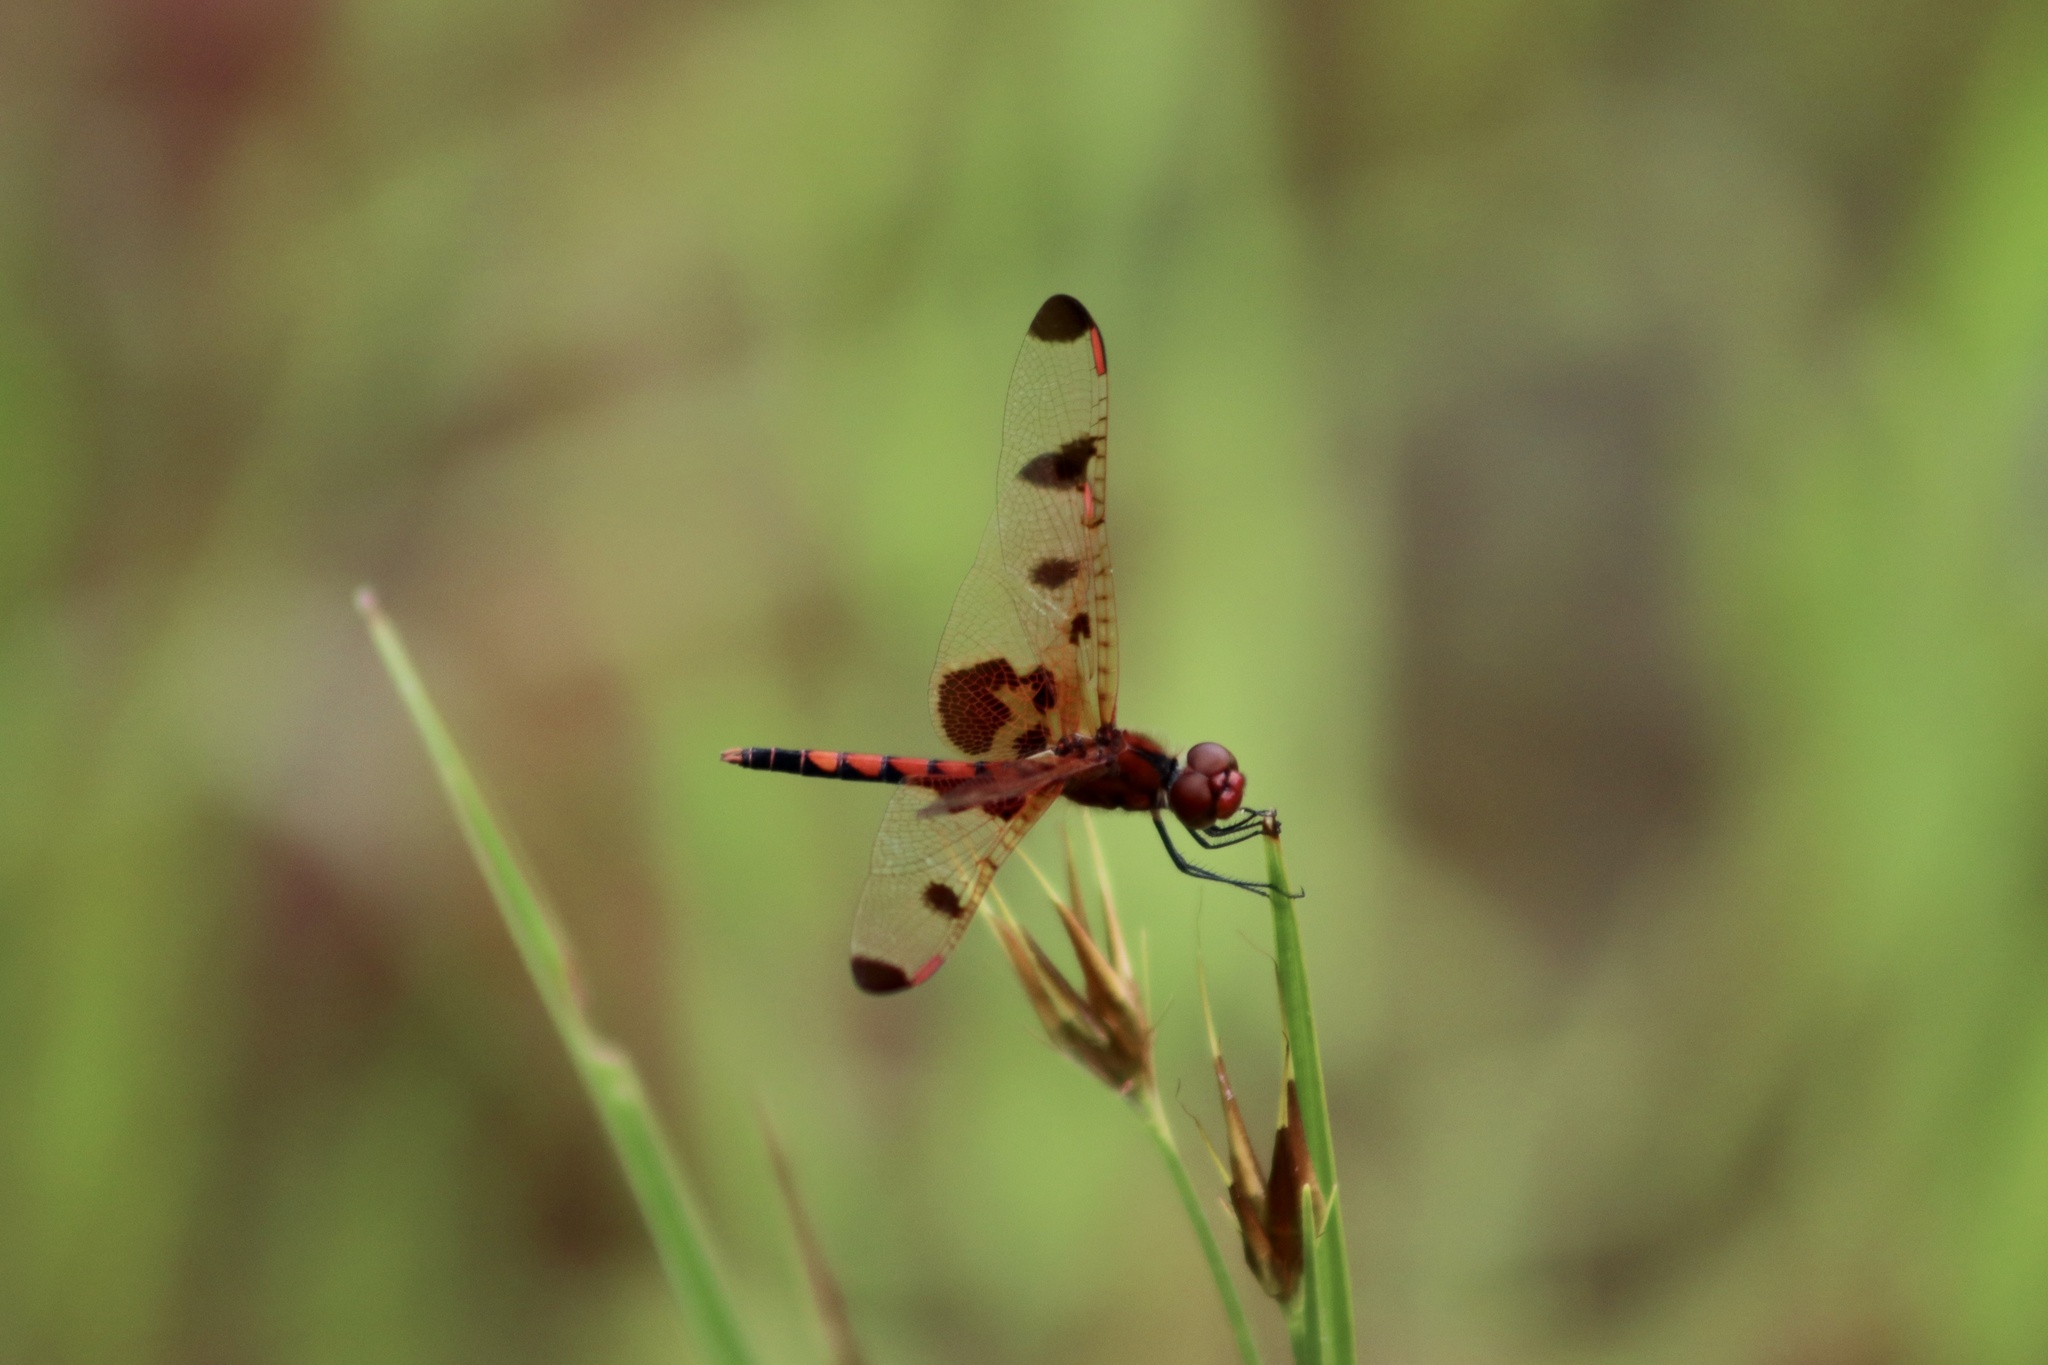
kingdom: Animalia
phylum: Arthropoda
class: Insecta
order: Odonata
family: Libellulidae
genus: Celithemis
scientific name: Celithemis elisa
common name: Calico pennant
